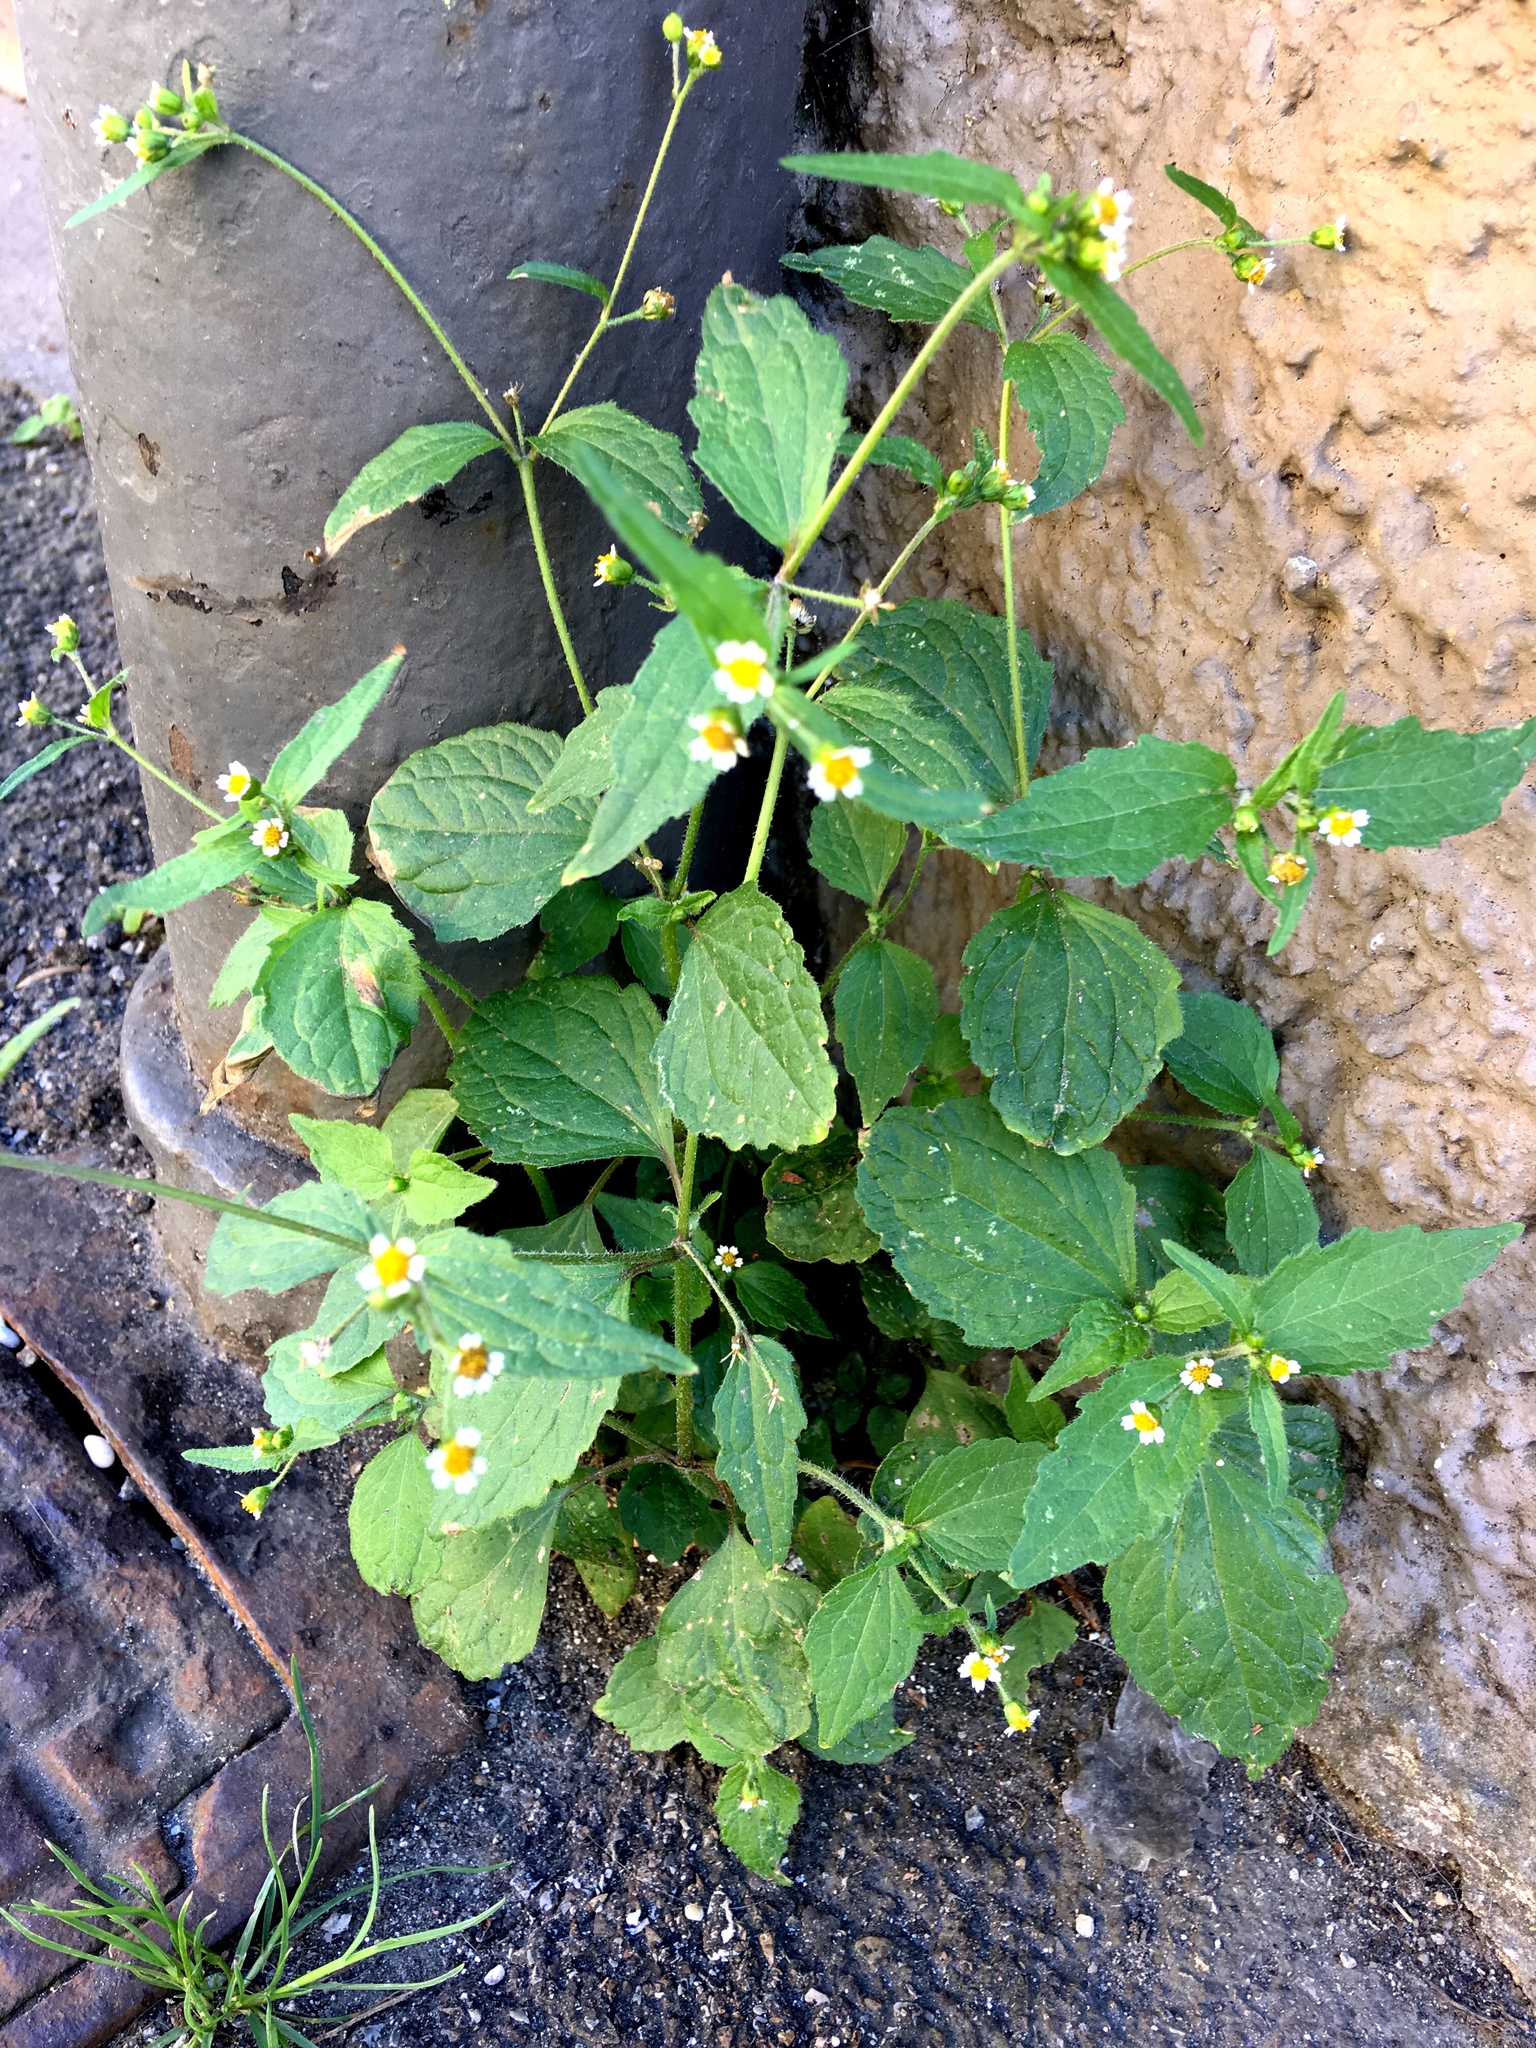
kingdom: Plantae
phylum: Tracheophyta
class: Magnoliopsida
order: Asterales
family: Asteraceae
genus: Galinsoga
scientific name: Galinsoga quadriradiata
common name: Shaggy soldier
